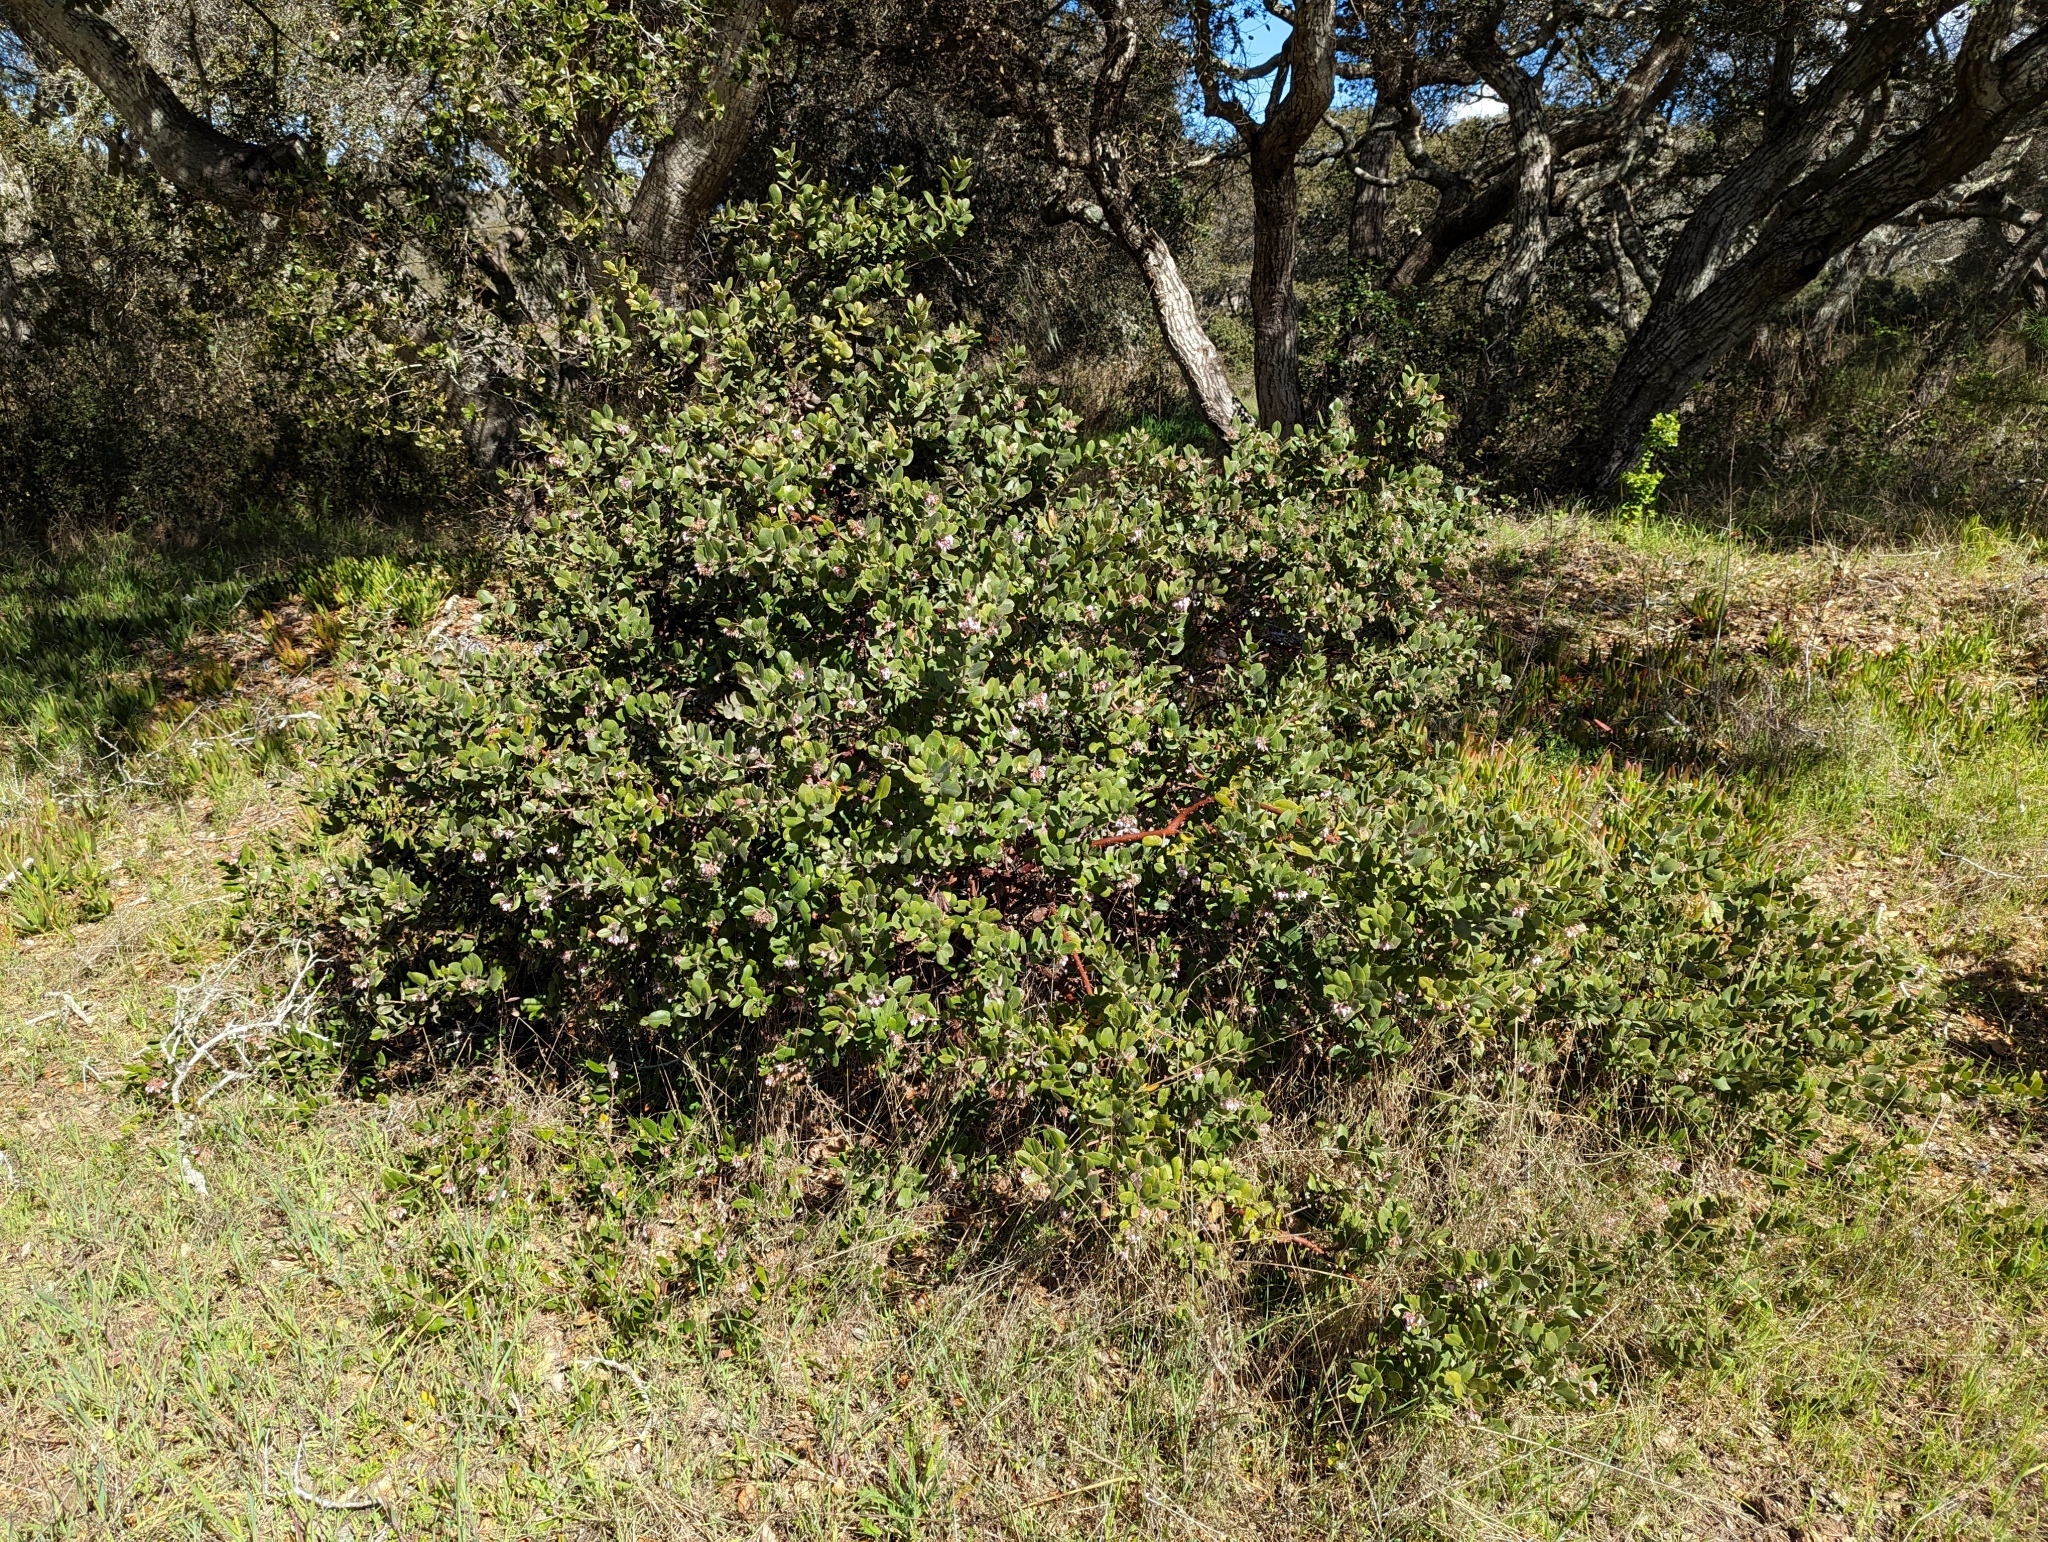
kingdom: Plantae
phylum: Tracheophyta
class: Magnoliopsida
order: Ericales
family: Ericaceae
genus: Arctostaphylos
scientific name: Arctostaphylos tomentosa
